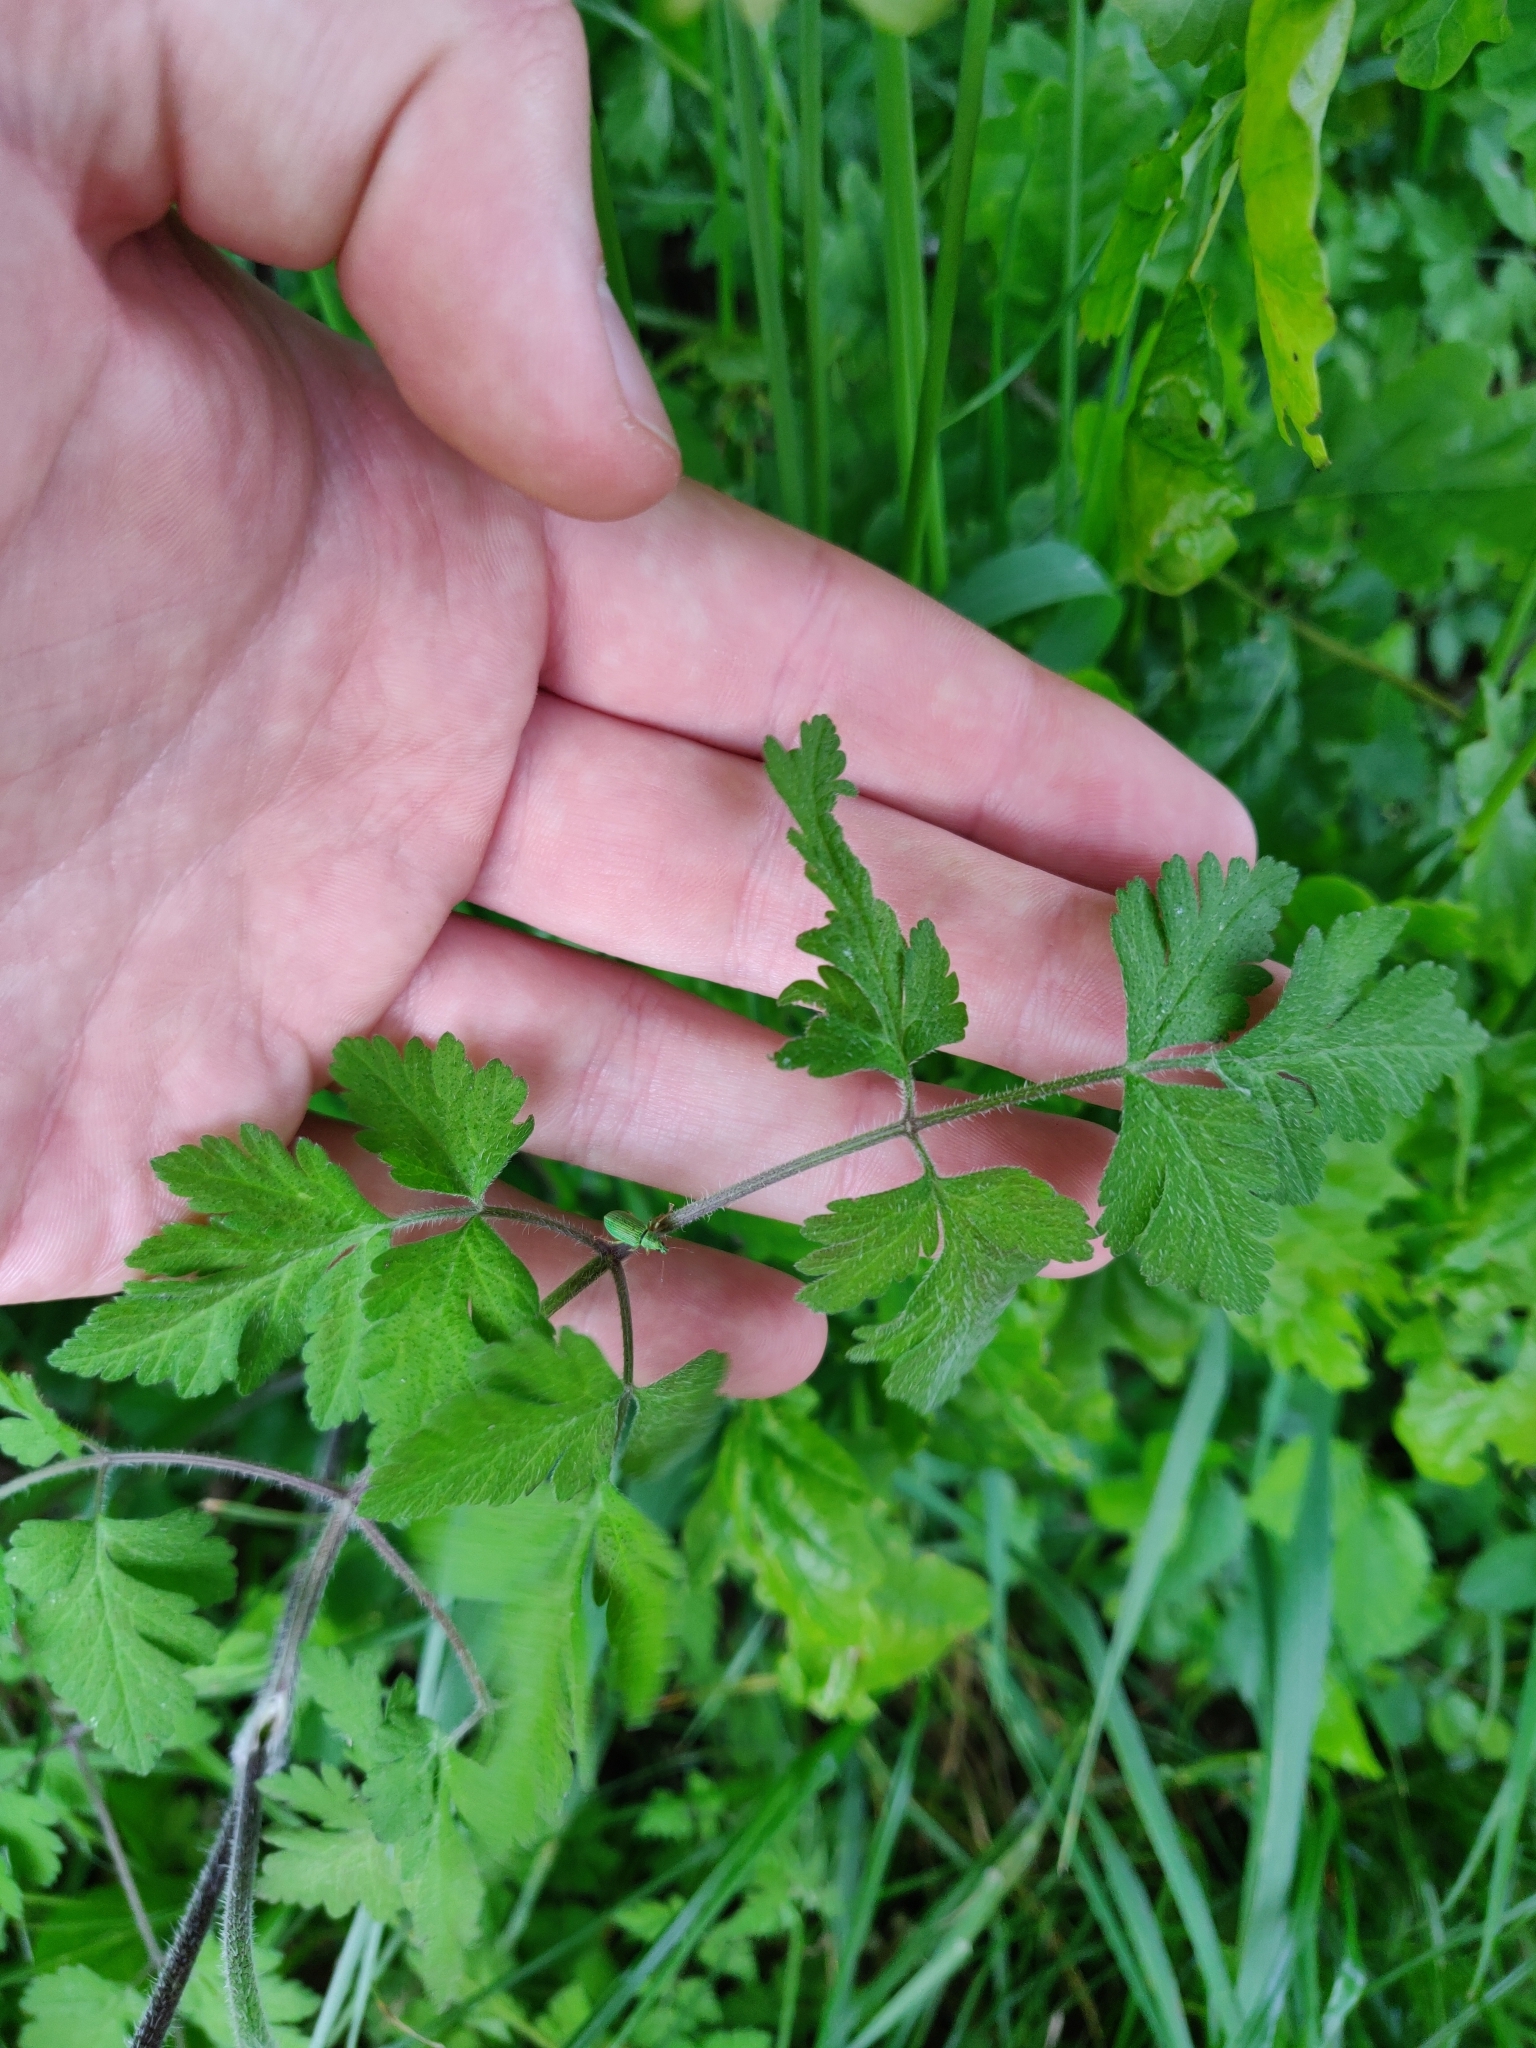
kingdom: Plantae
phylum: Tracheophyta
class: Magnoliopsida
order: Apiales
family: Apiaceae
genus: Chaerophyllum
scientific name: Chaerophyllum temulum
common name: Rough chervil
